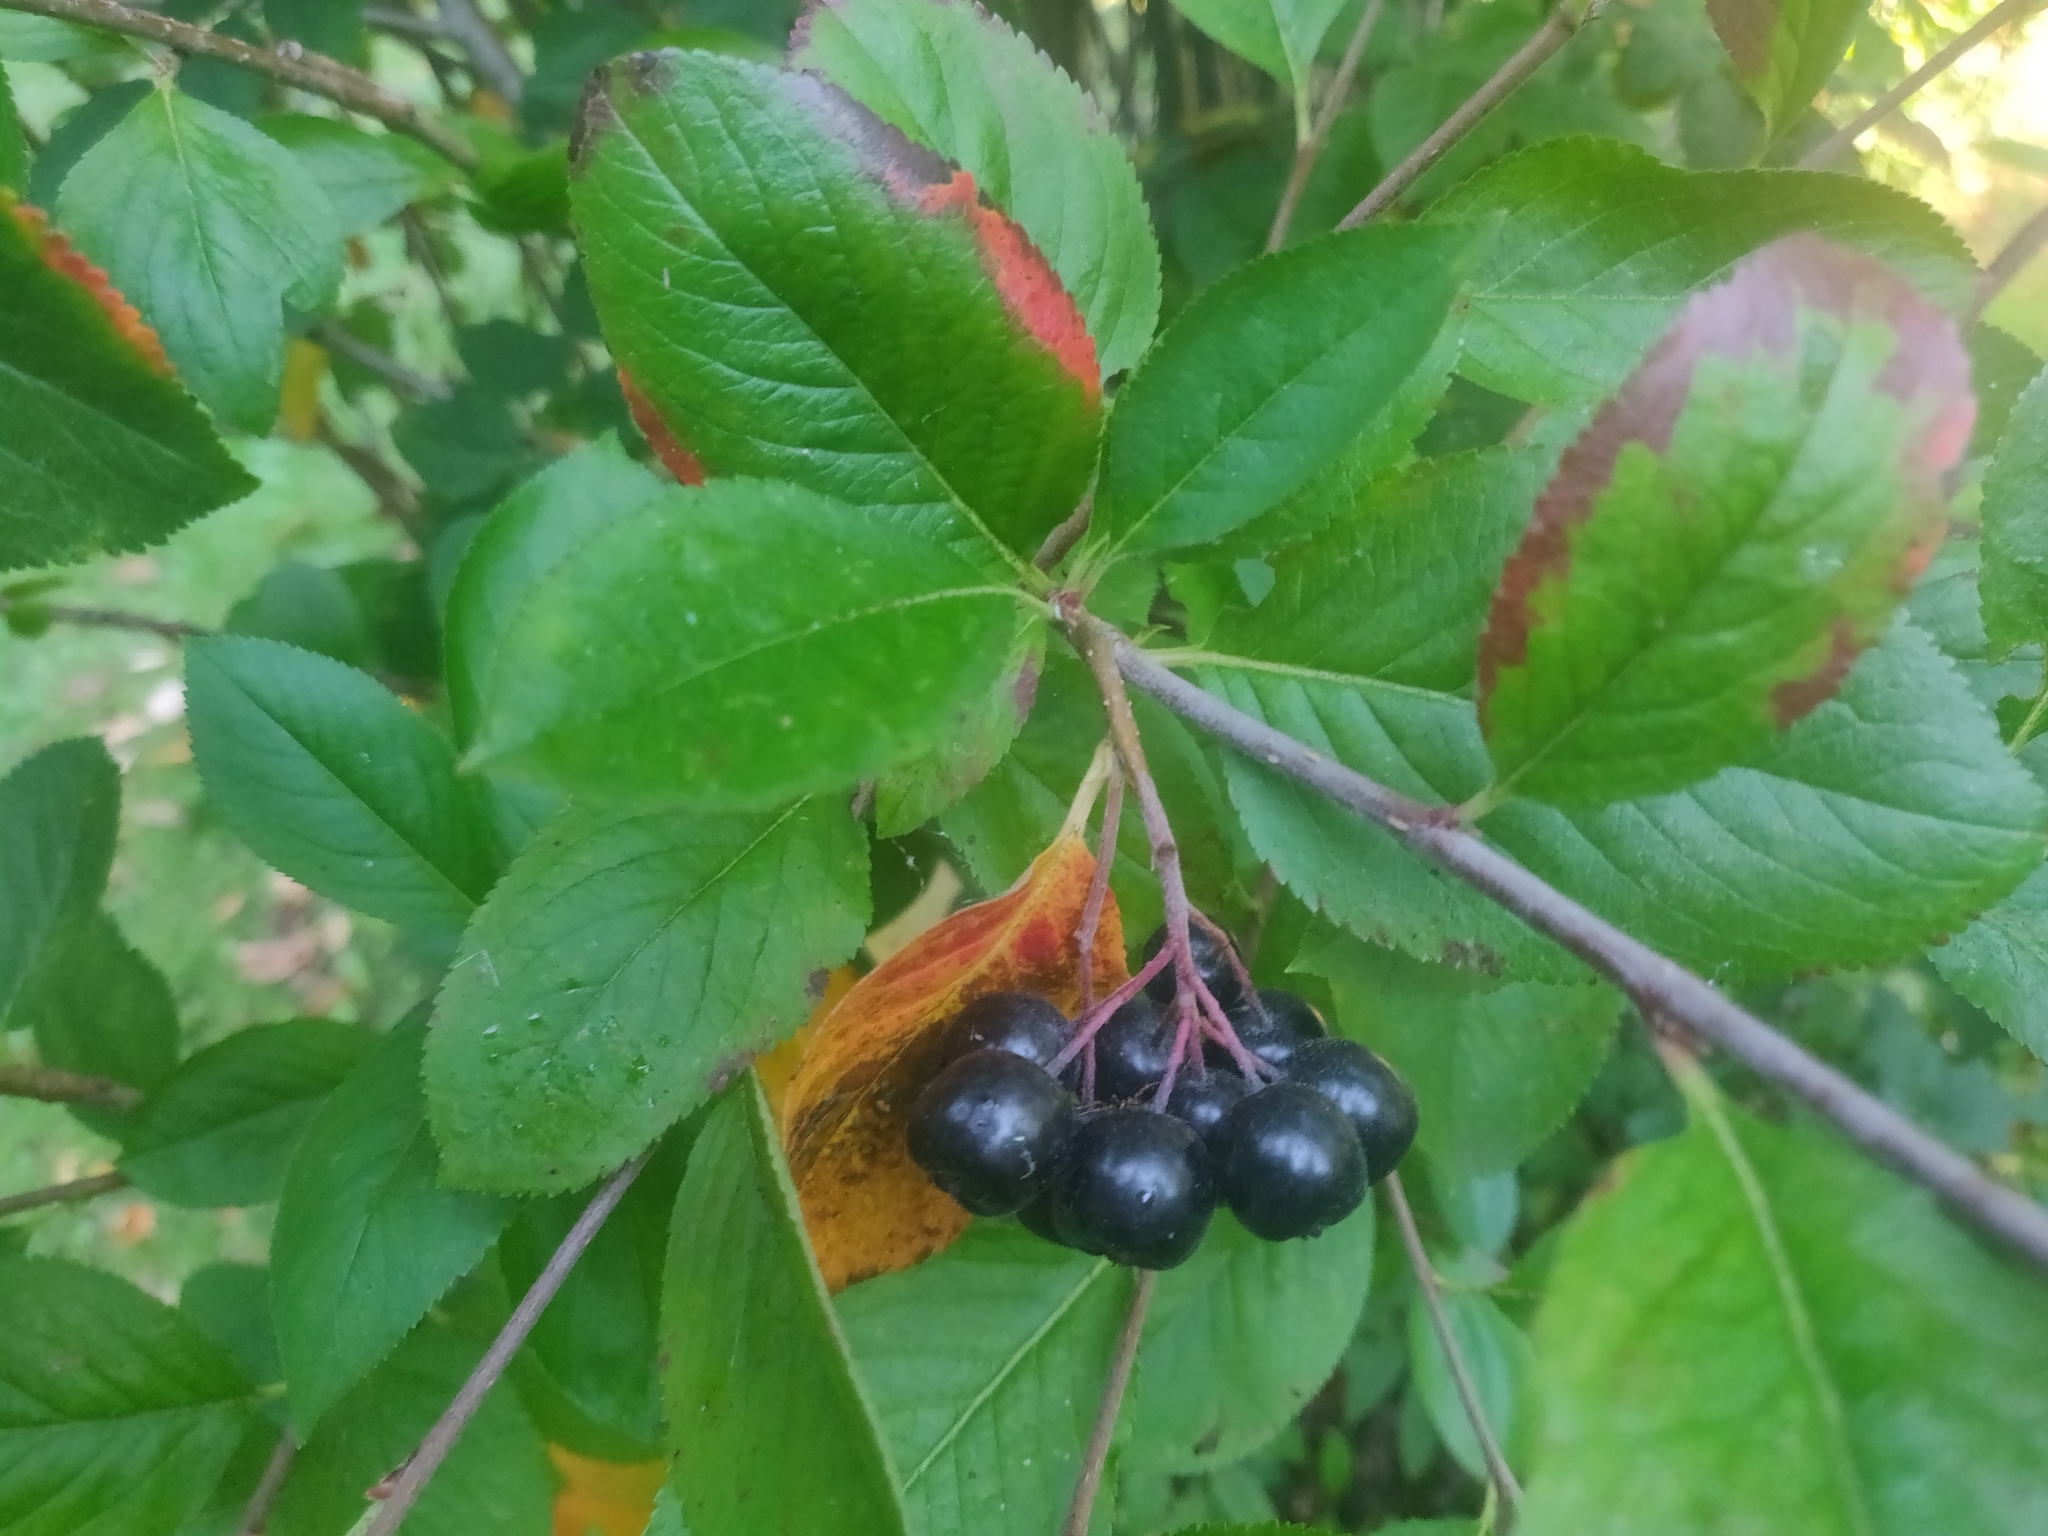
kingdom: Plantae
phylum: Tracheophyta
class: Magnoliopsida
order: Rosales
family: Rosaceae
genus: Aronia
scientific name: Aronia melanocarpa
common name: Black chokeberry
